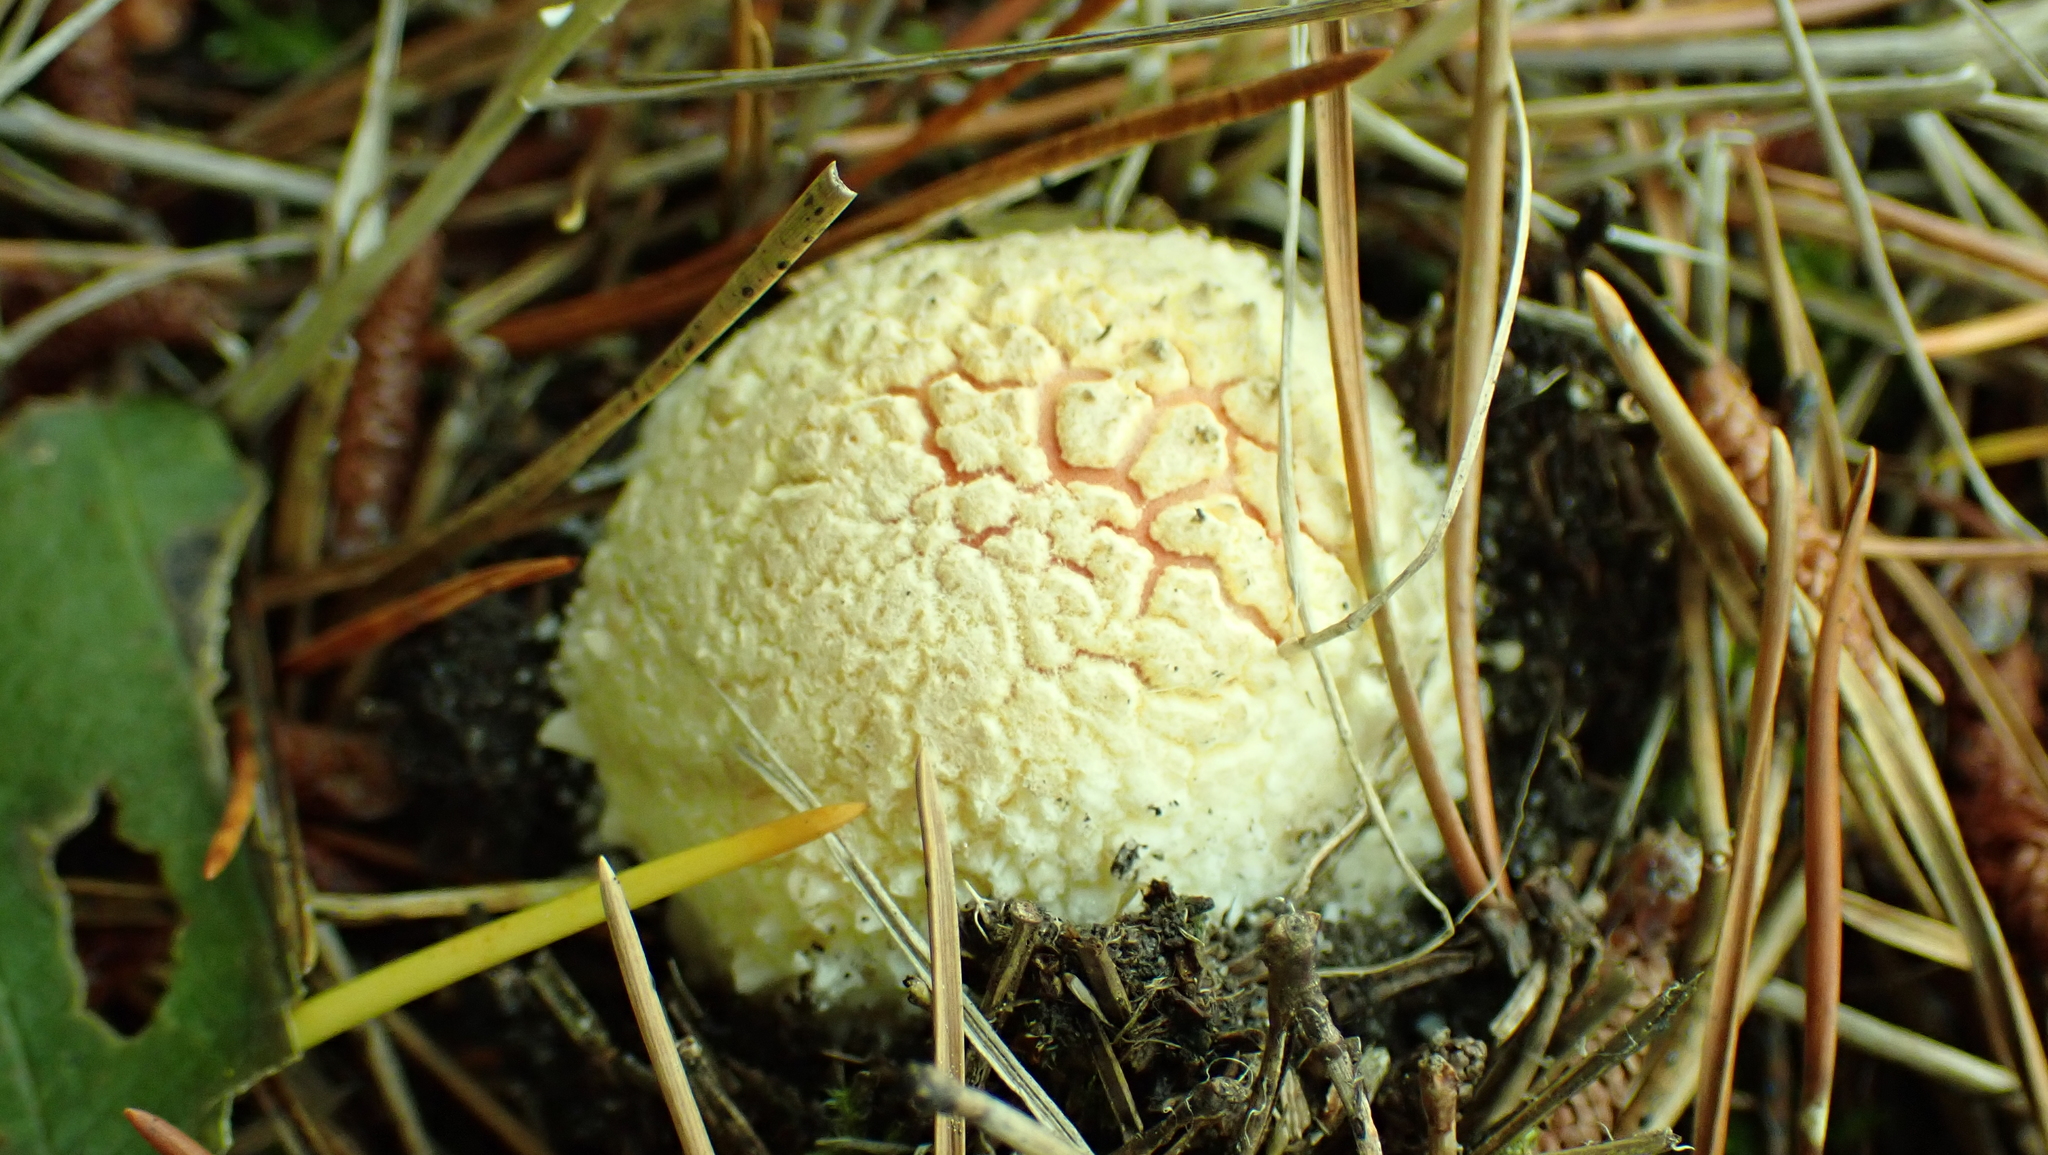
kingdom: Fungi
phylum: Basidiomycota
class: Agaricomycetes
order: Agaricales
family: Amanitaceae
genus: Amanita
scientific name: Amanita muscaria
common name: Fly agaric
